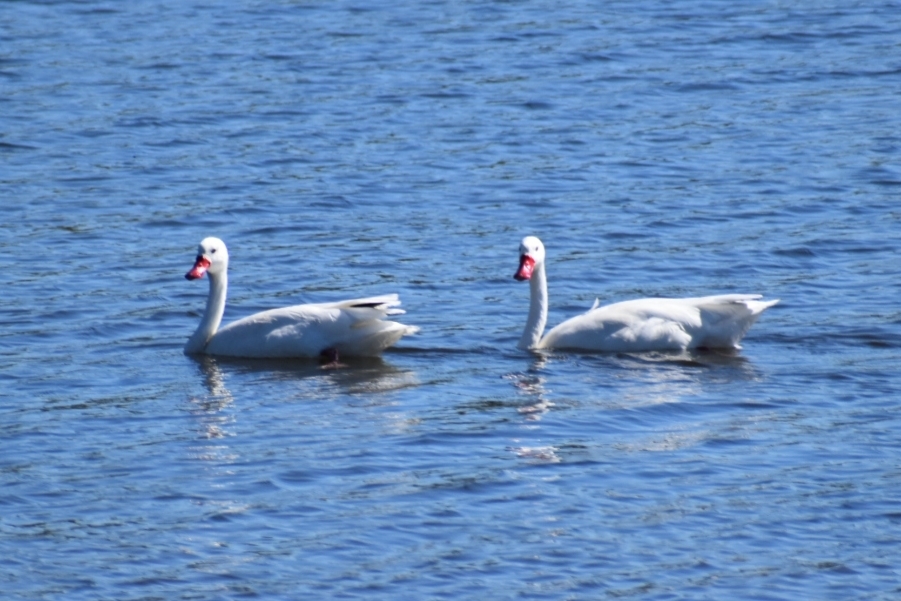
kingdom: Animalia
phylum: Chordata
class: Aves
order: Anseriformes
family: Anatidae
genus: Coscoroba
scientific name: Coscoroba coscoroba
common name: Coscoroba swan
